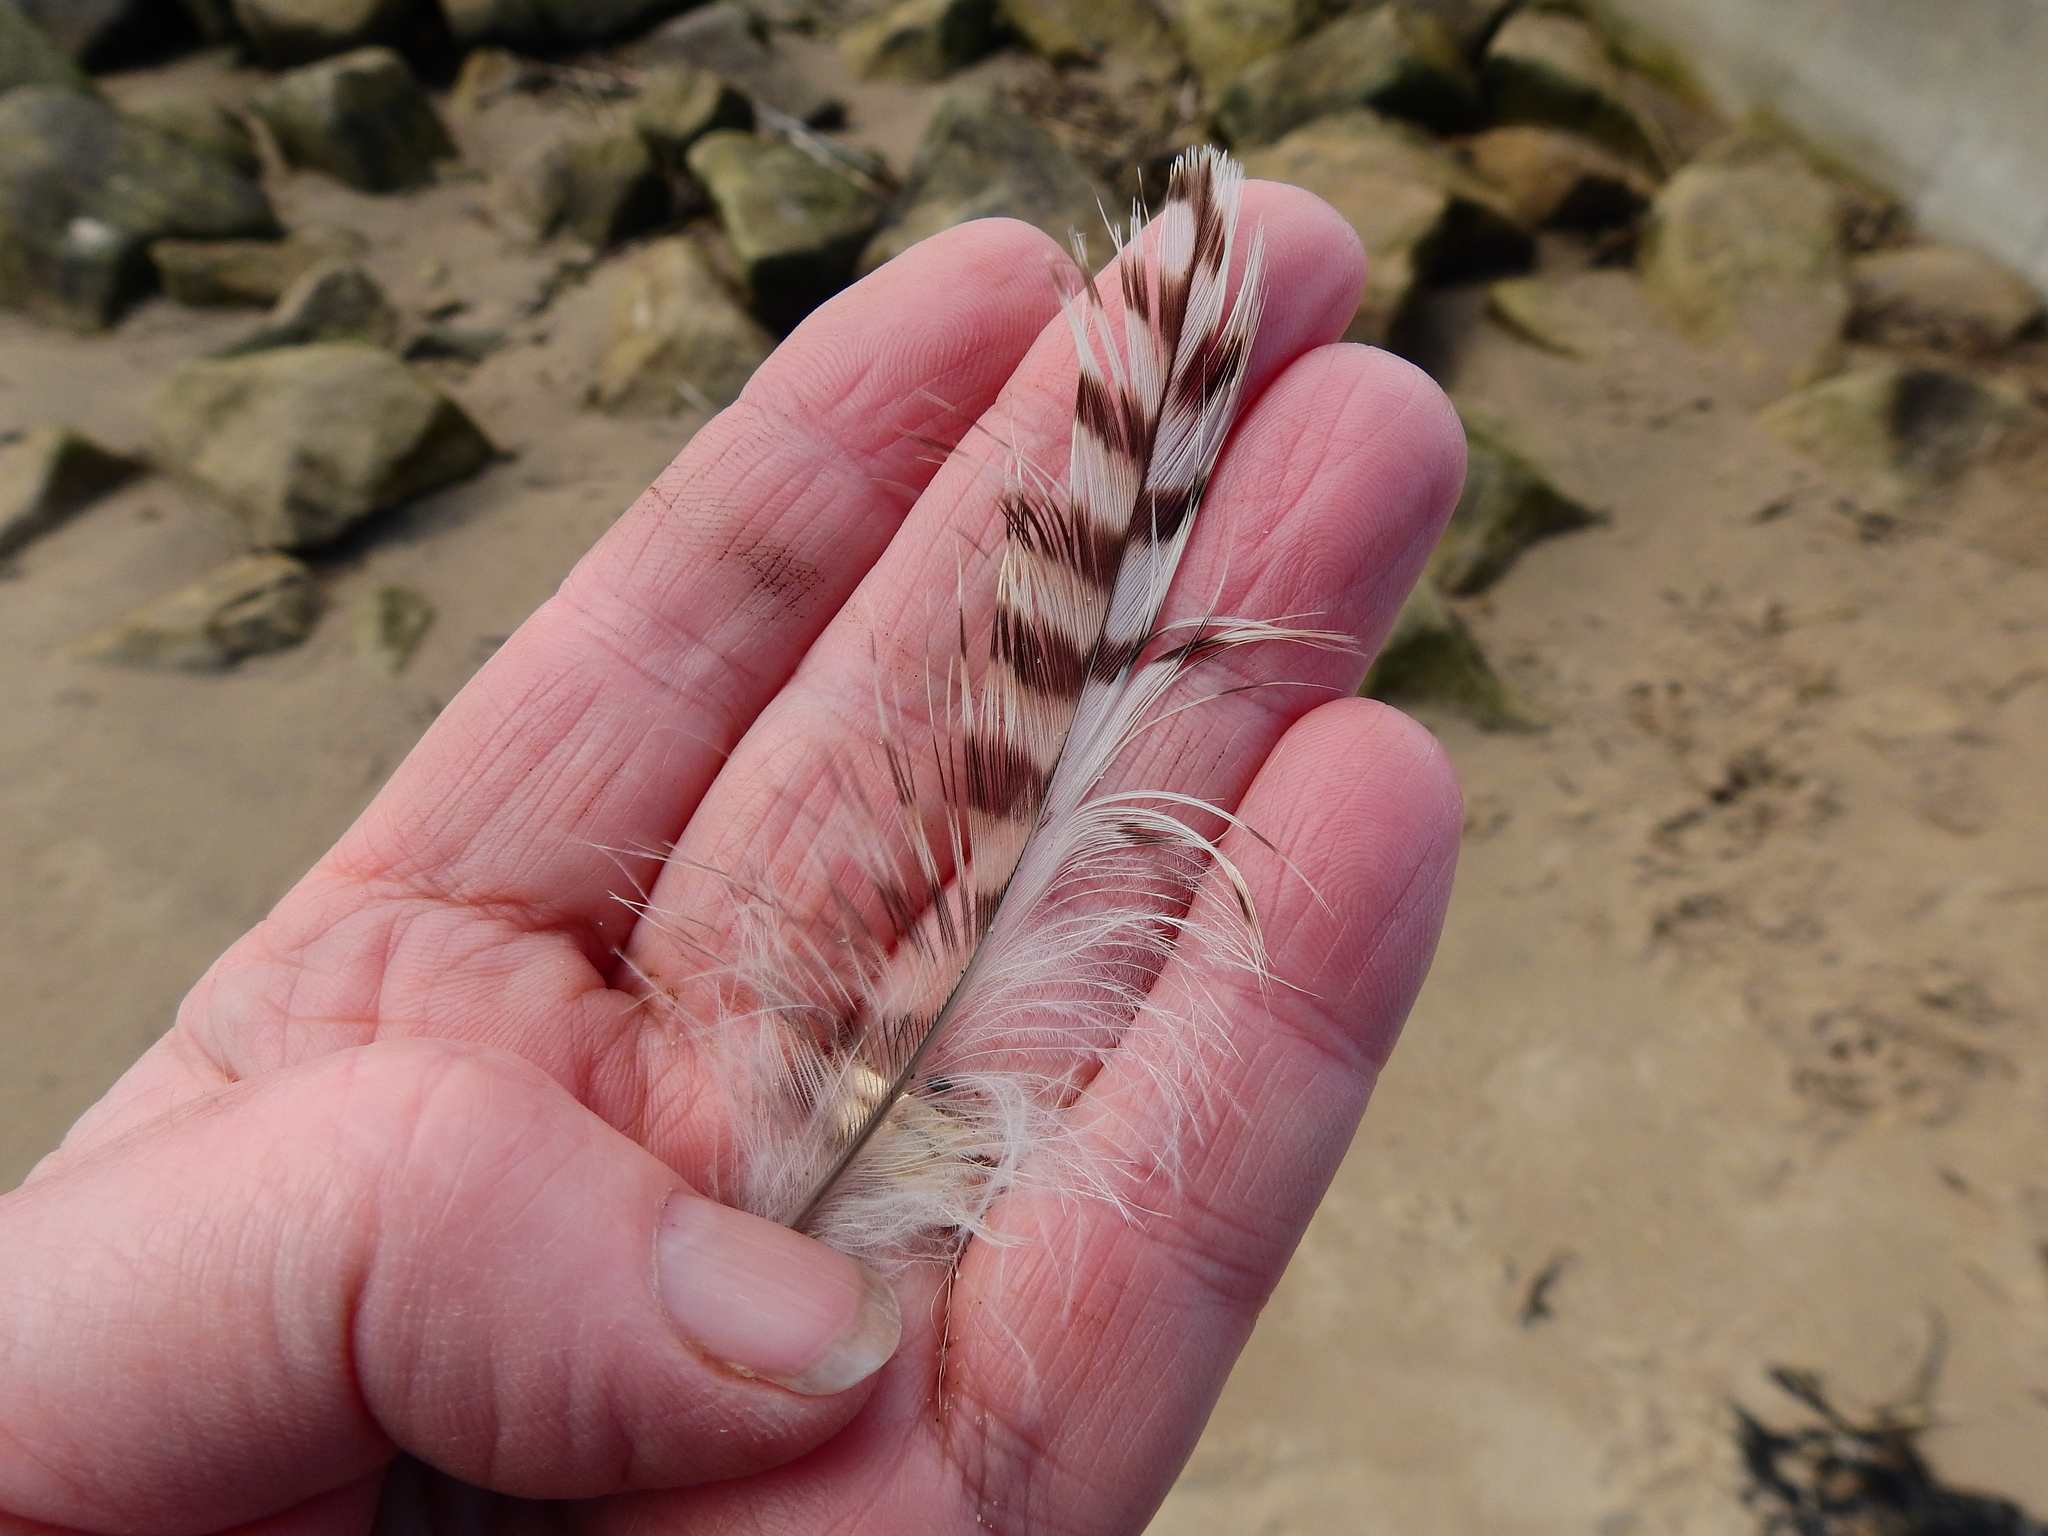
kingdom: Animalia
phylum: Chordata
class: Aves
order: Charadriiformes
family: Scolopacidae
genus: Numenius
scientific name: Numenius arquata
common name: Eurasian curlew
